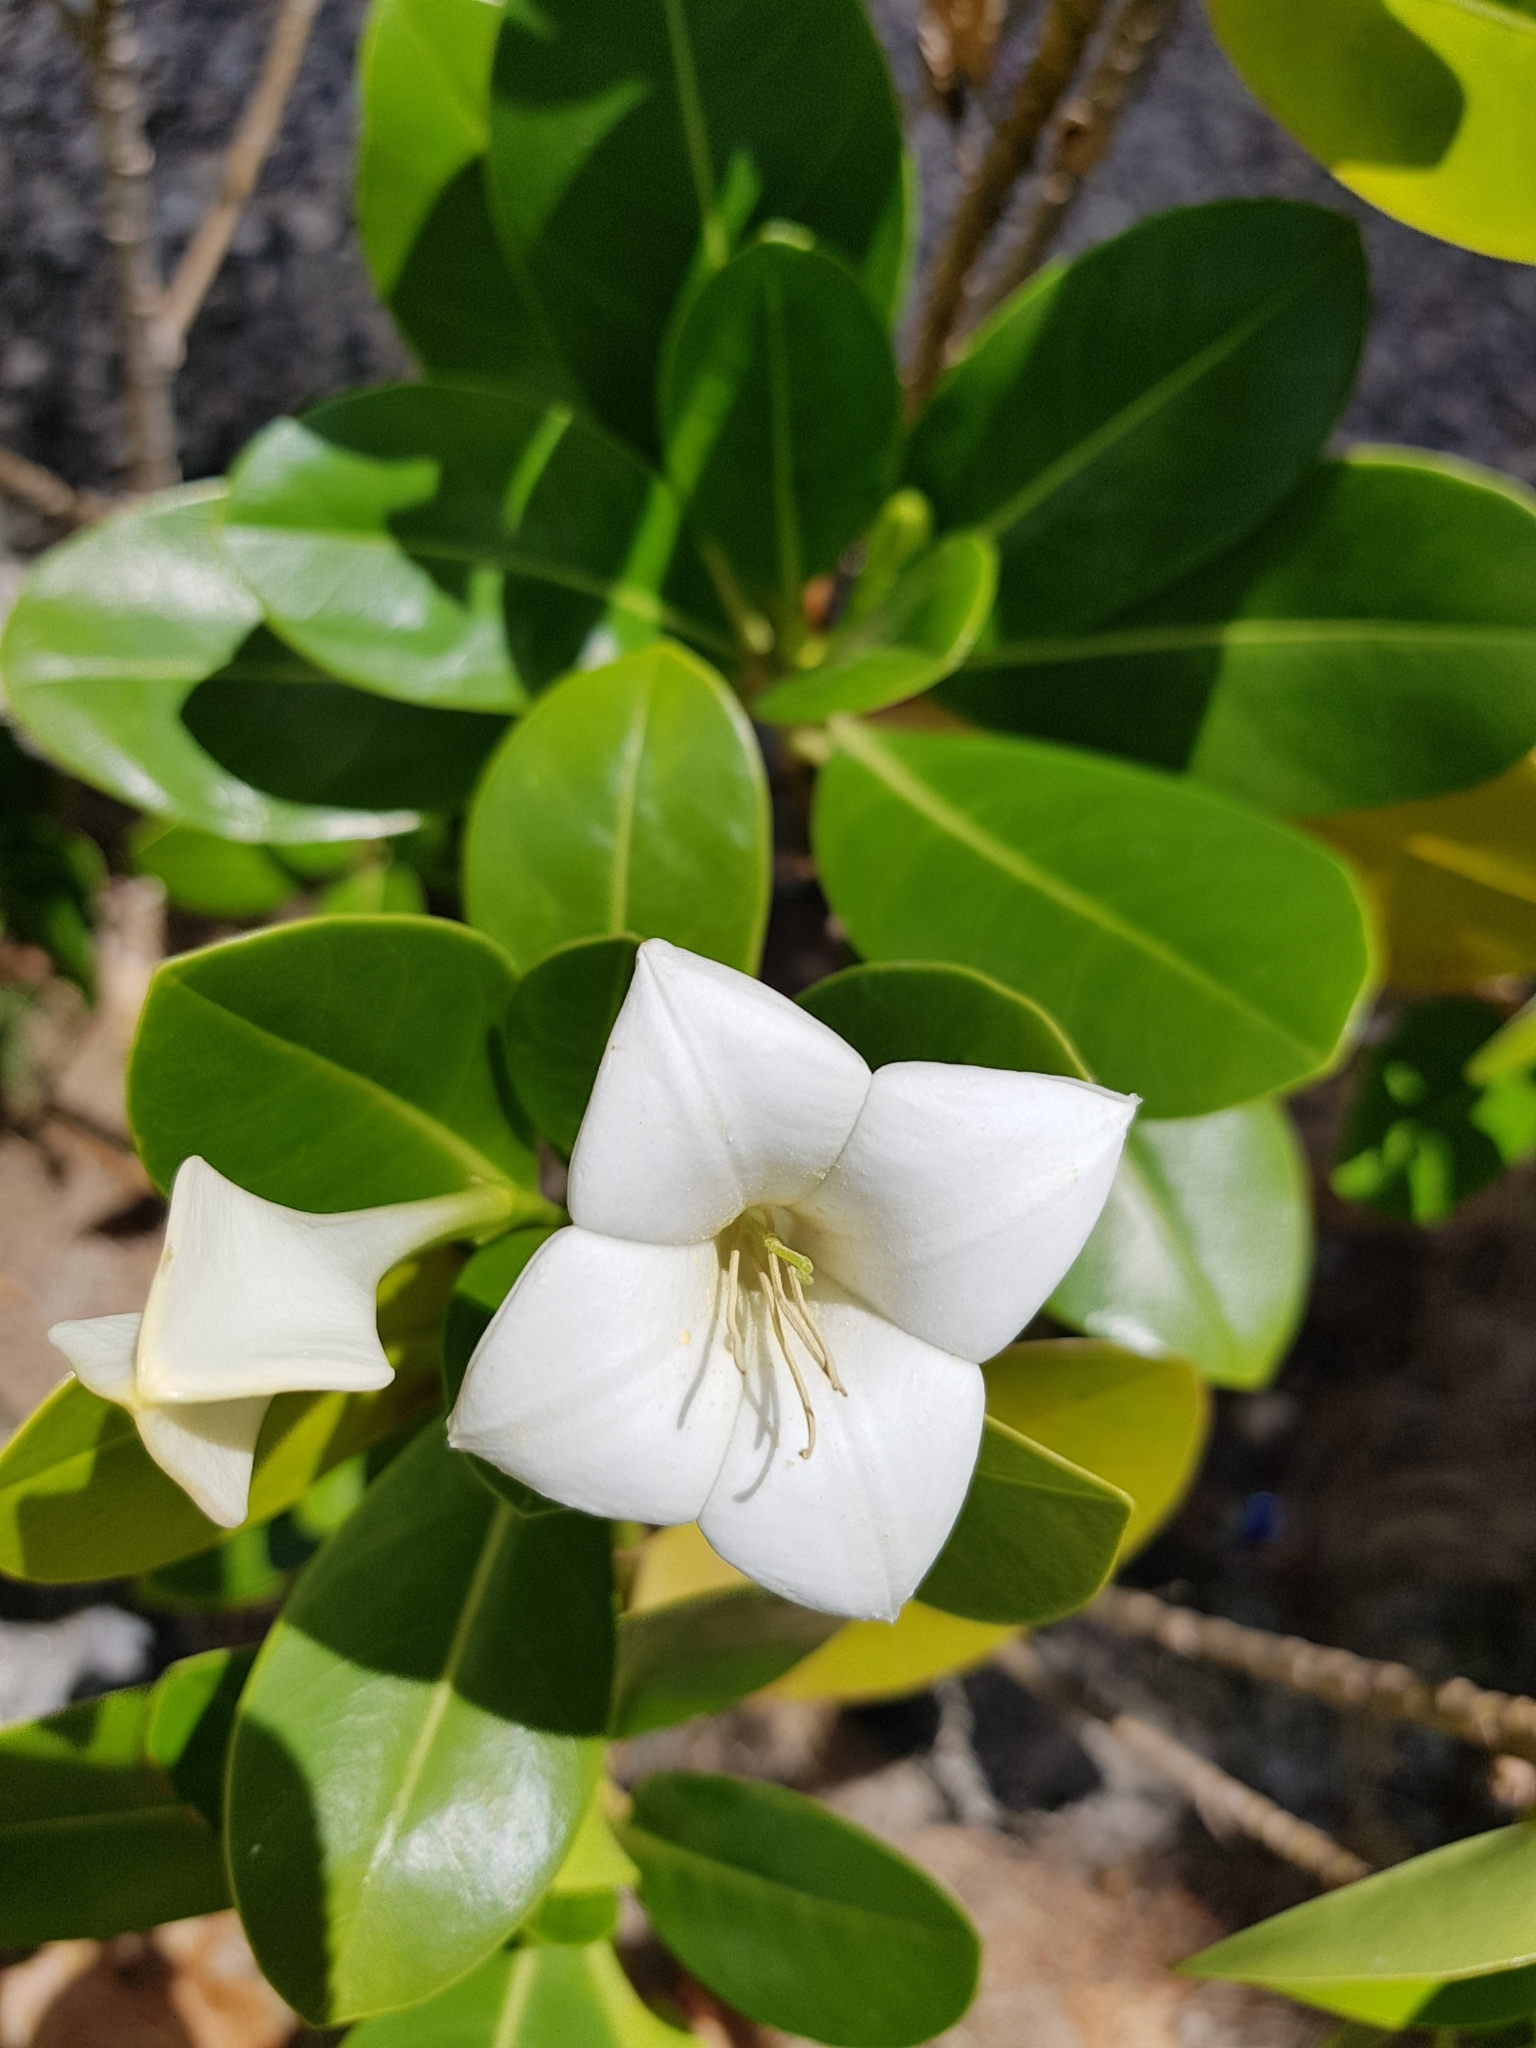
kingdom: Plantae
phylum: Tracheophyta
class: Magnoliopsida
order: Gentianales
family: Rubiaceae
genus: Bikkia
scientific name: Bikkia tetrandra
